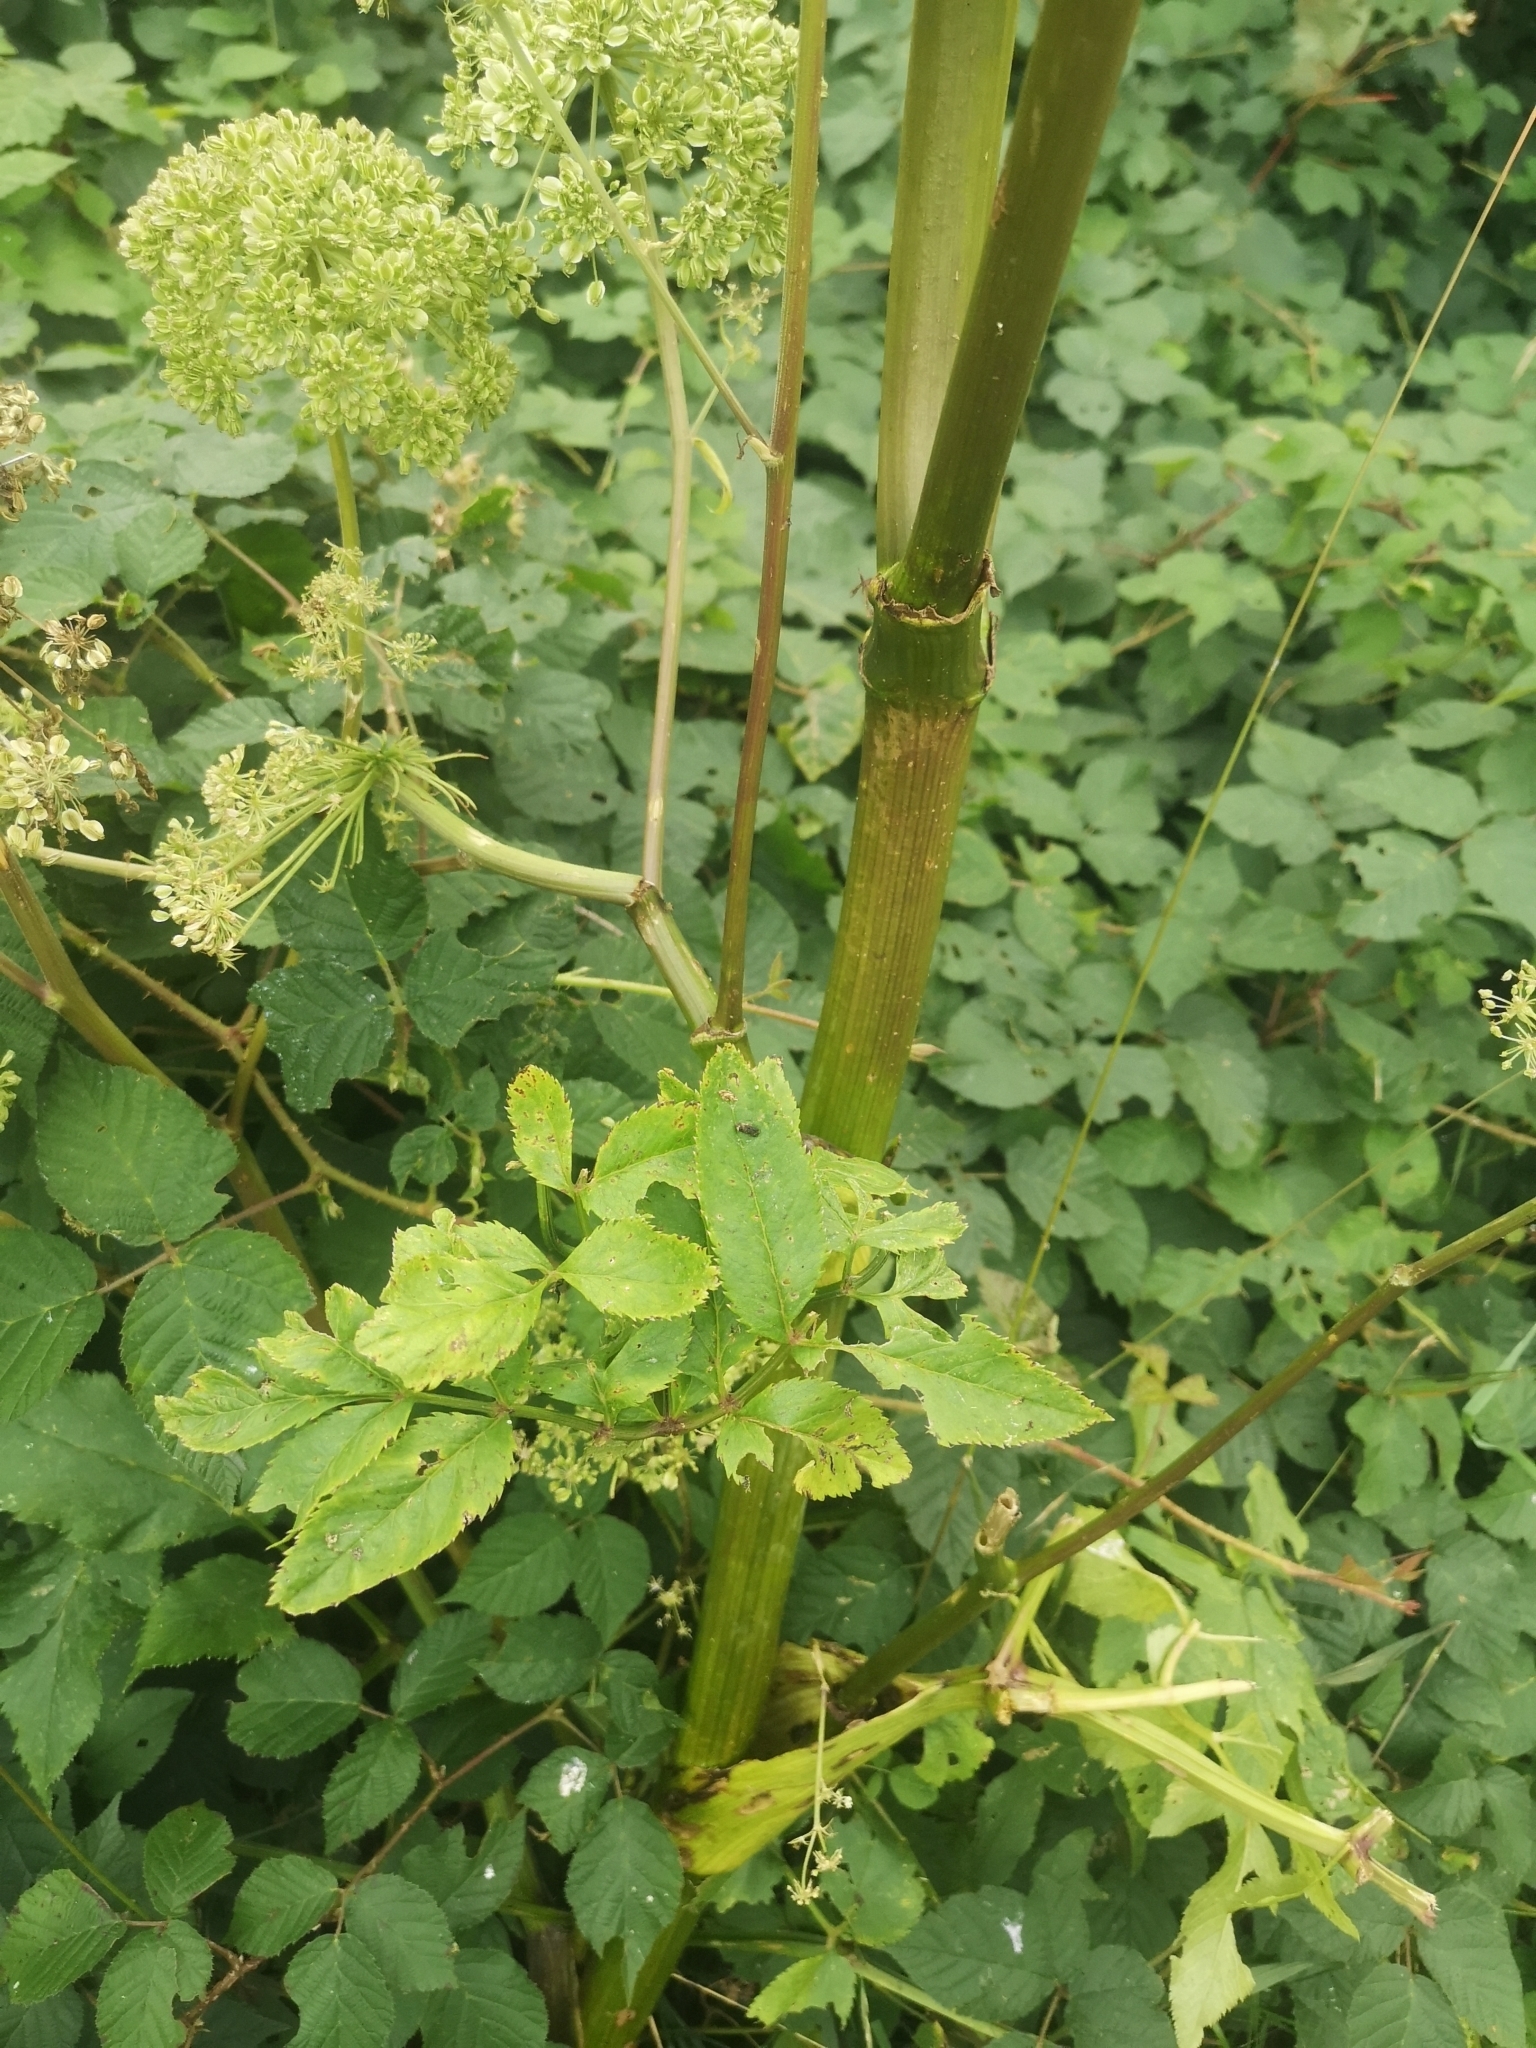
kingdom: Plantae
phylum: Tracheophyta
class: Magnoliopsida
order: Apiales
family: Apiaceae
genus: Angelica
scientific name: Angelica sylvestris
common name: Wild angelica
